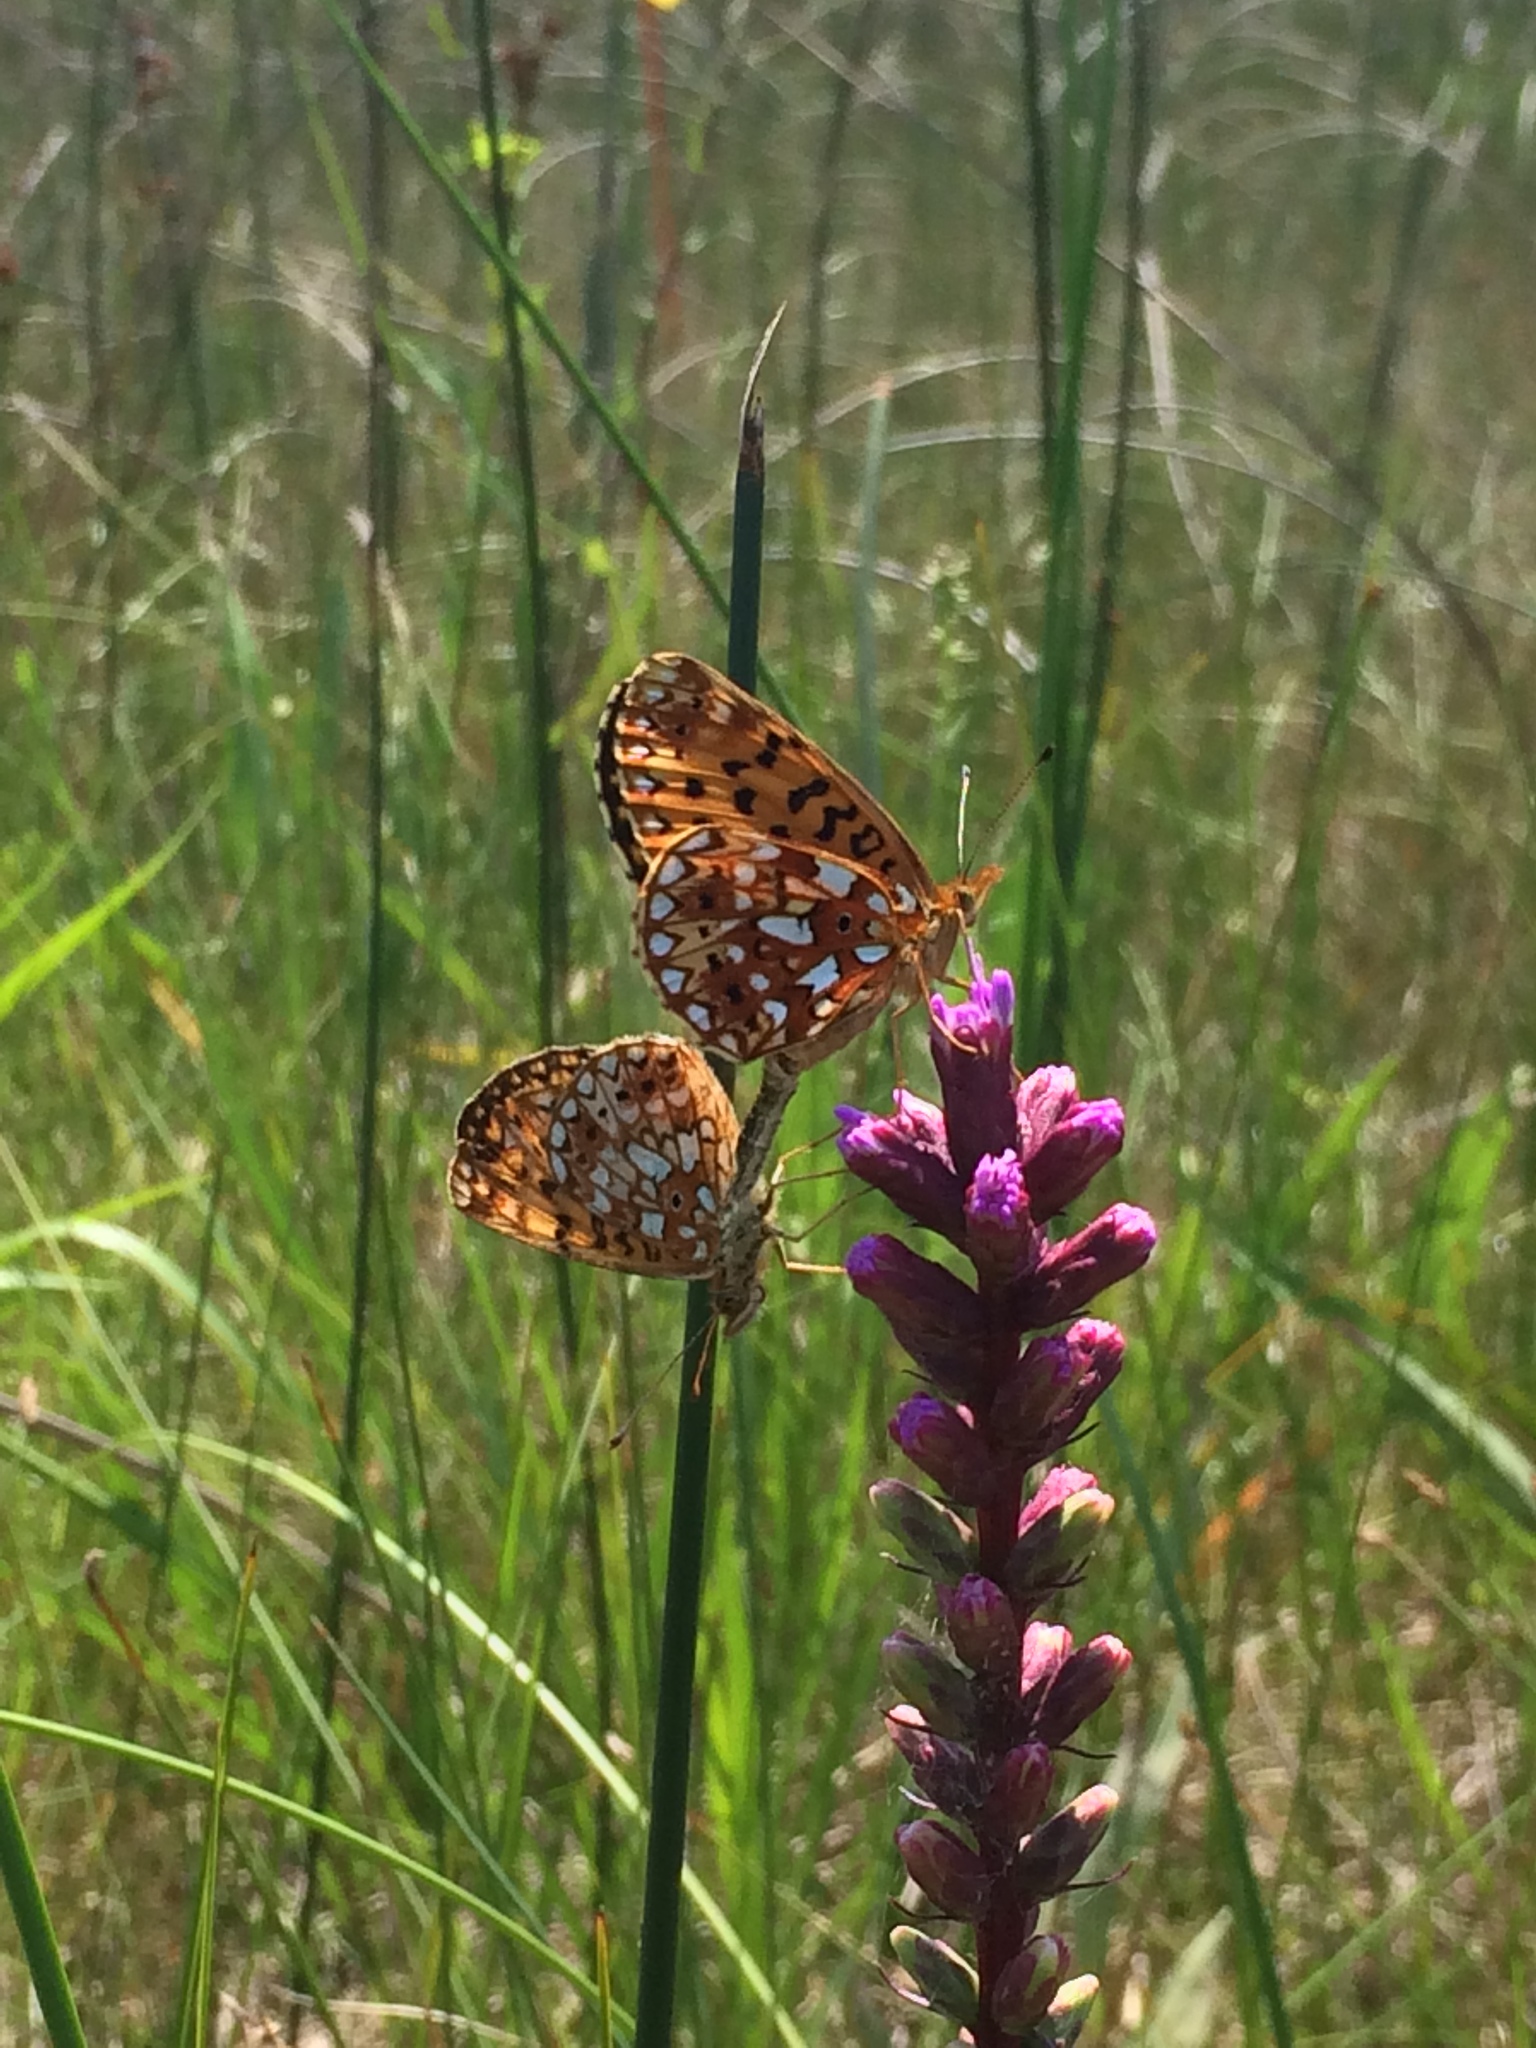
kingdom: Animalia
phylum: Arthropoda
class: Insecta
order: Lepidoptera
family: Nymphalidae
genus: Boloria
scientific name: Boloria
